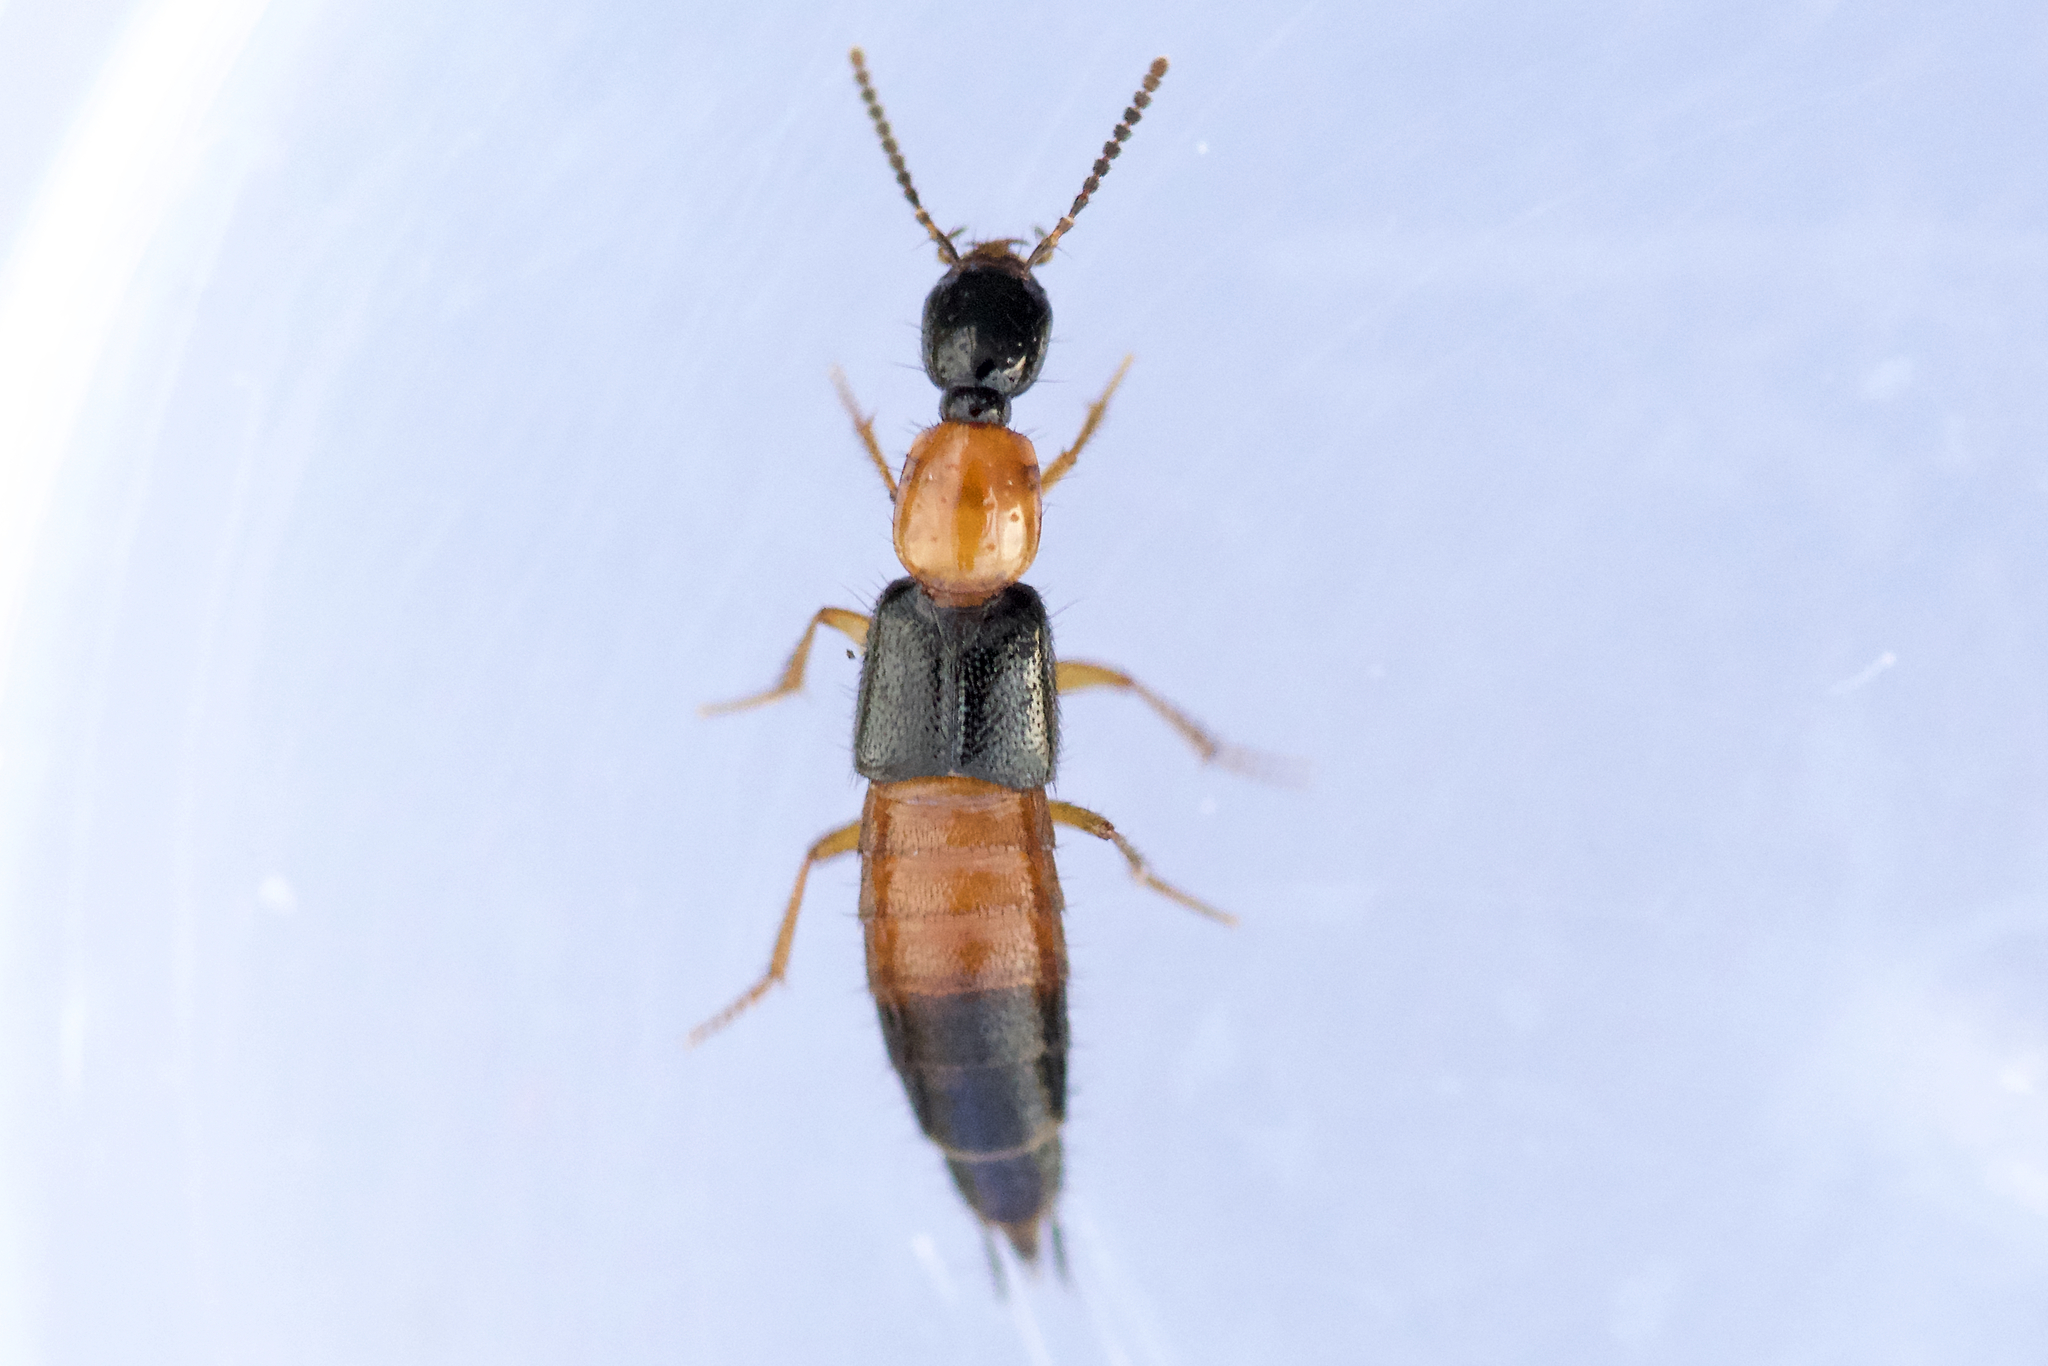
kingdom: Animalia
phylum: Arthropoda
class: Insecta
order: Coleoptera
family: Staphylinidae
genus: Bisnius
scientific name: Bisnius blandus
